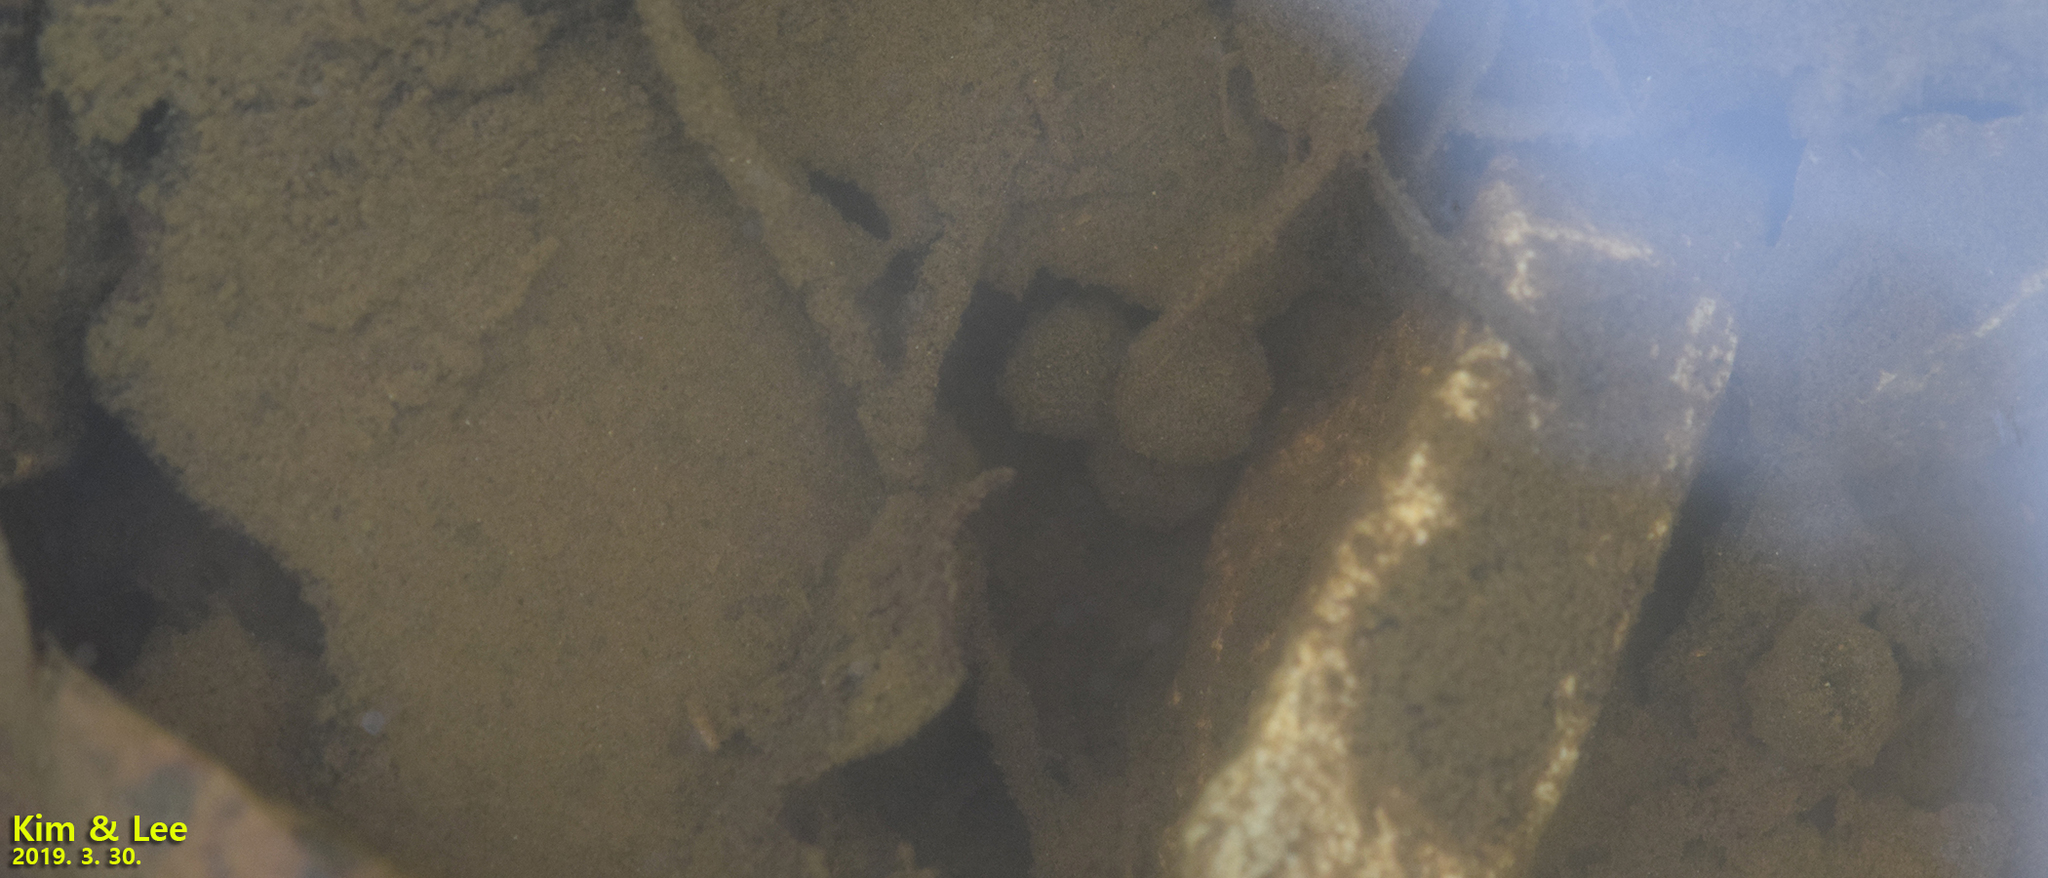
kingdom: Animalia
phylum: Chordata
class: Amphibia
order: Anura
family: Bombinatoridae
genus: Bombina
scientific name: Bombina orientalis
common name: Oriental firebelly toad
